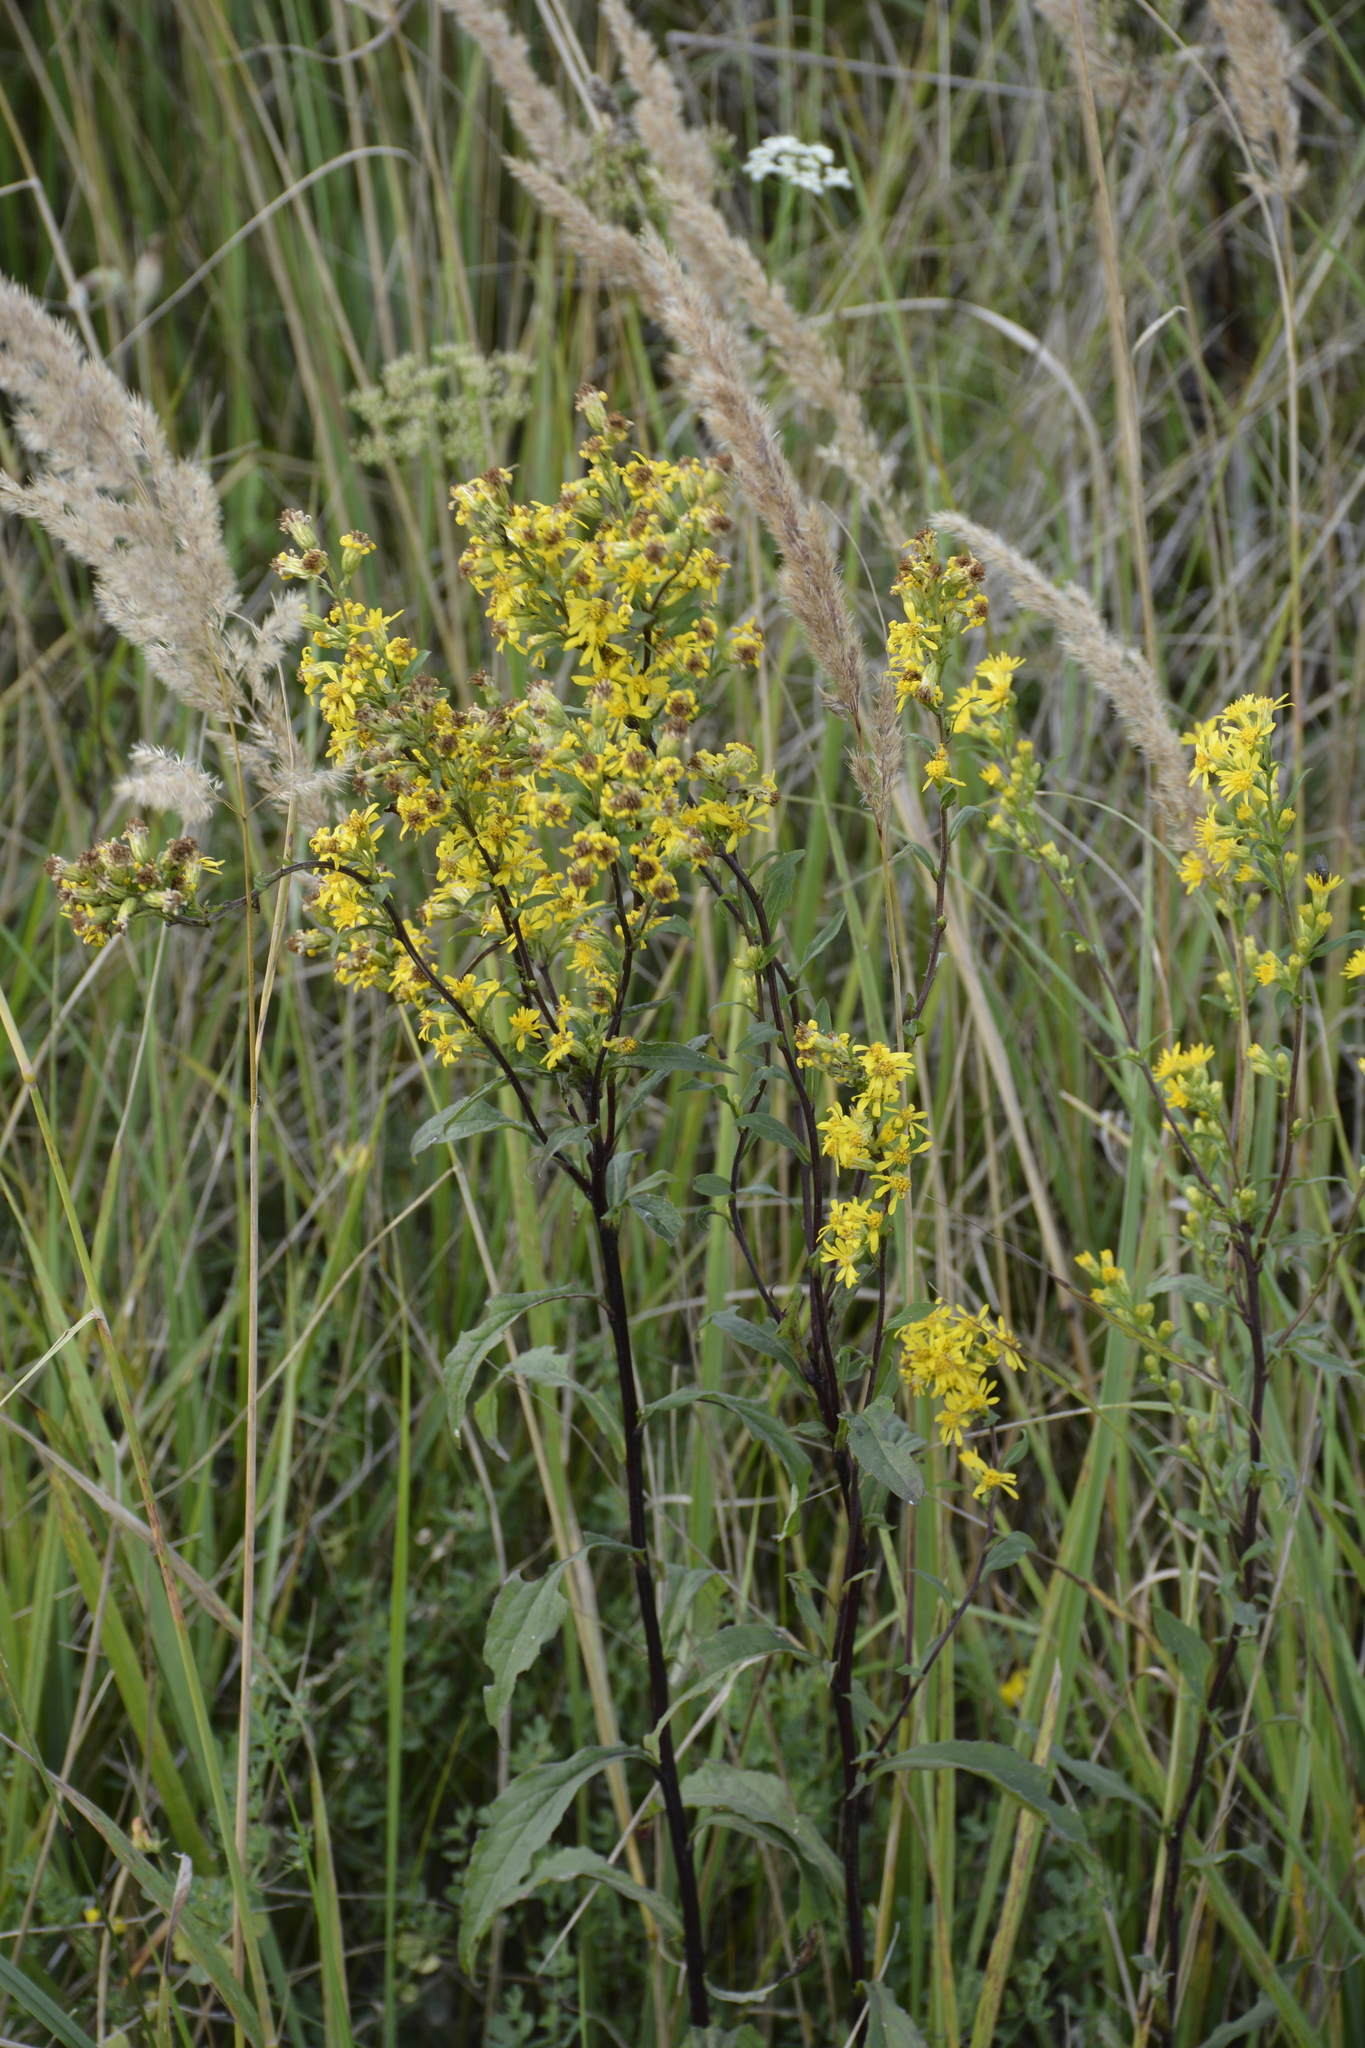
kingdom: Plantae
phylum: Tracheophyta
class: Magnoliopsida
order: Asterales
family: Asteraceae
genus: Solidago
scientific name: Solidago virgaurea
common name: Goldenrod
